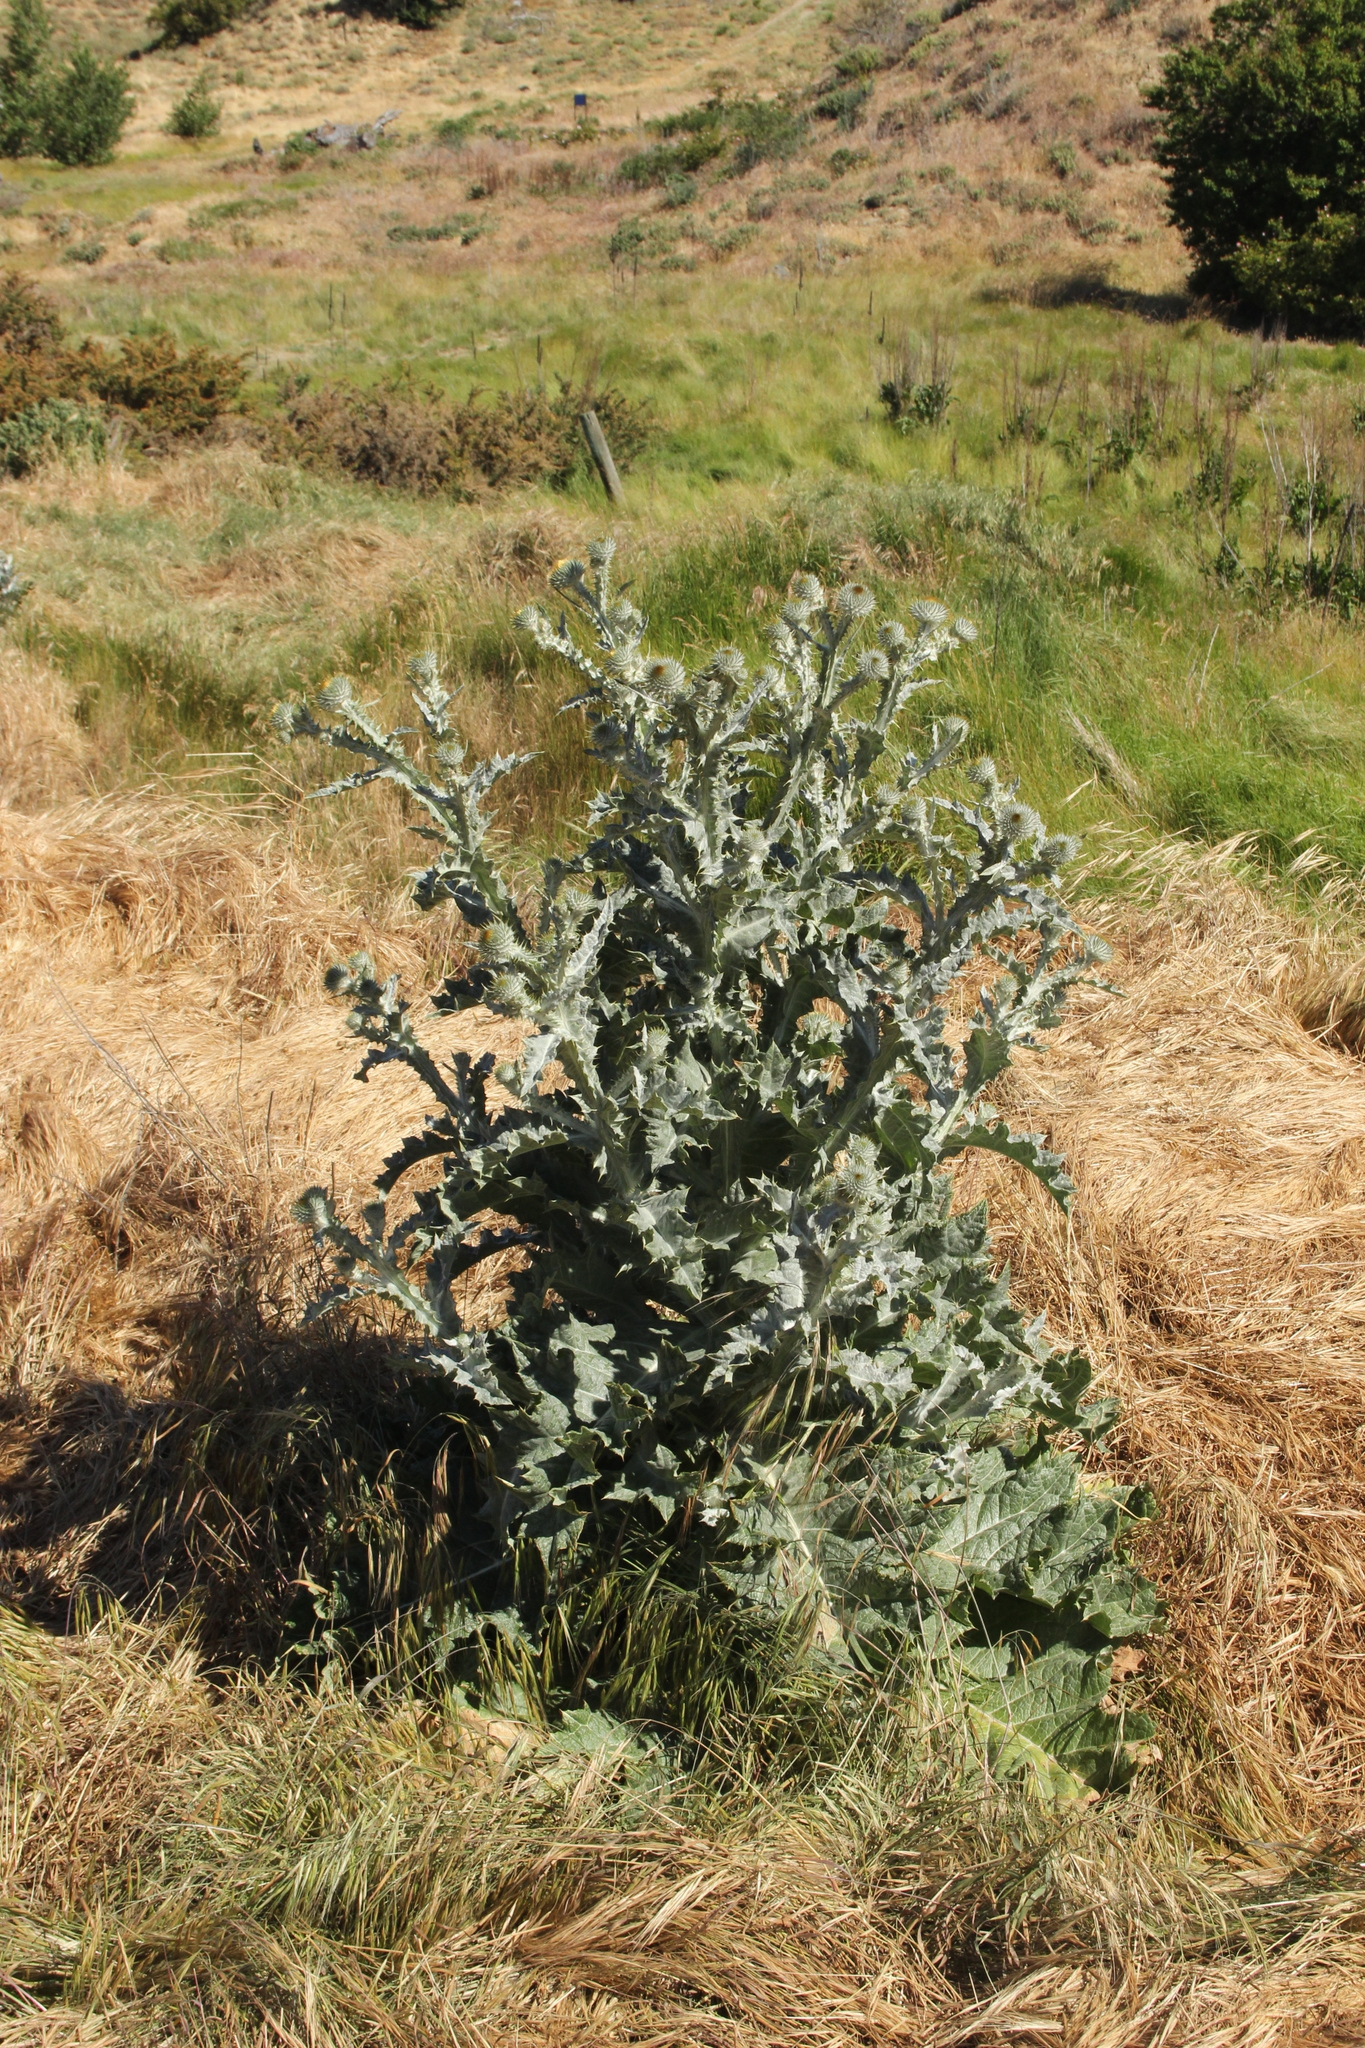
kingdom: Plantae
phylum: Tracheophyta
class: Magnoliopsida
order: Asterales
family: Asteraceae
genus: Onopordum
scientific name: Onopordum acanthium
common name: Scotch thistle
